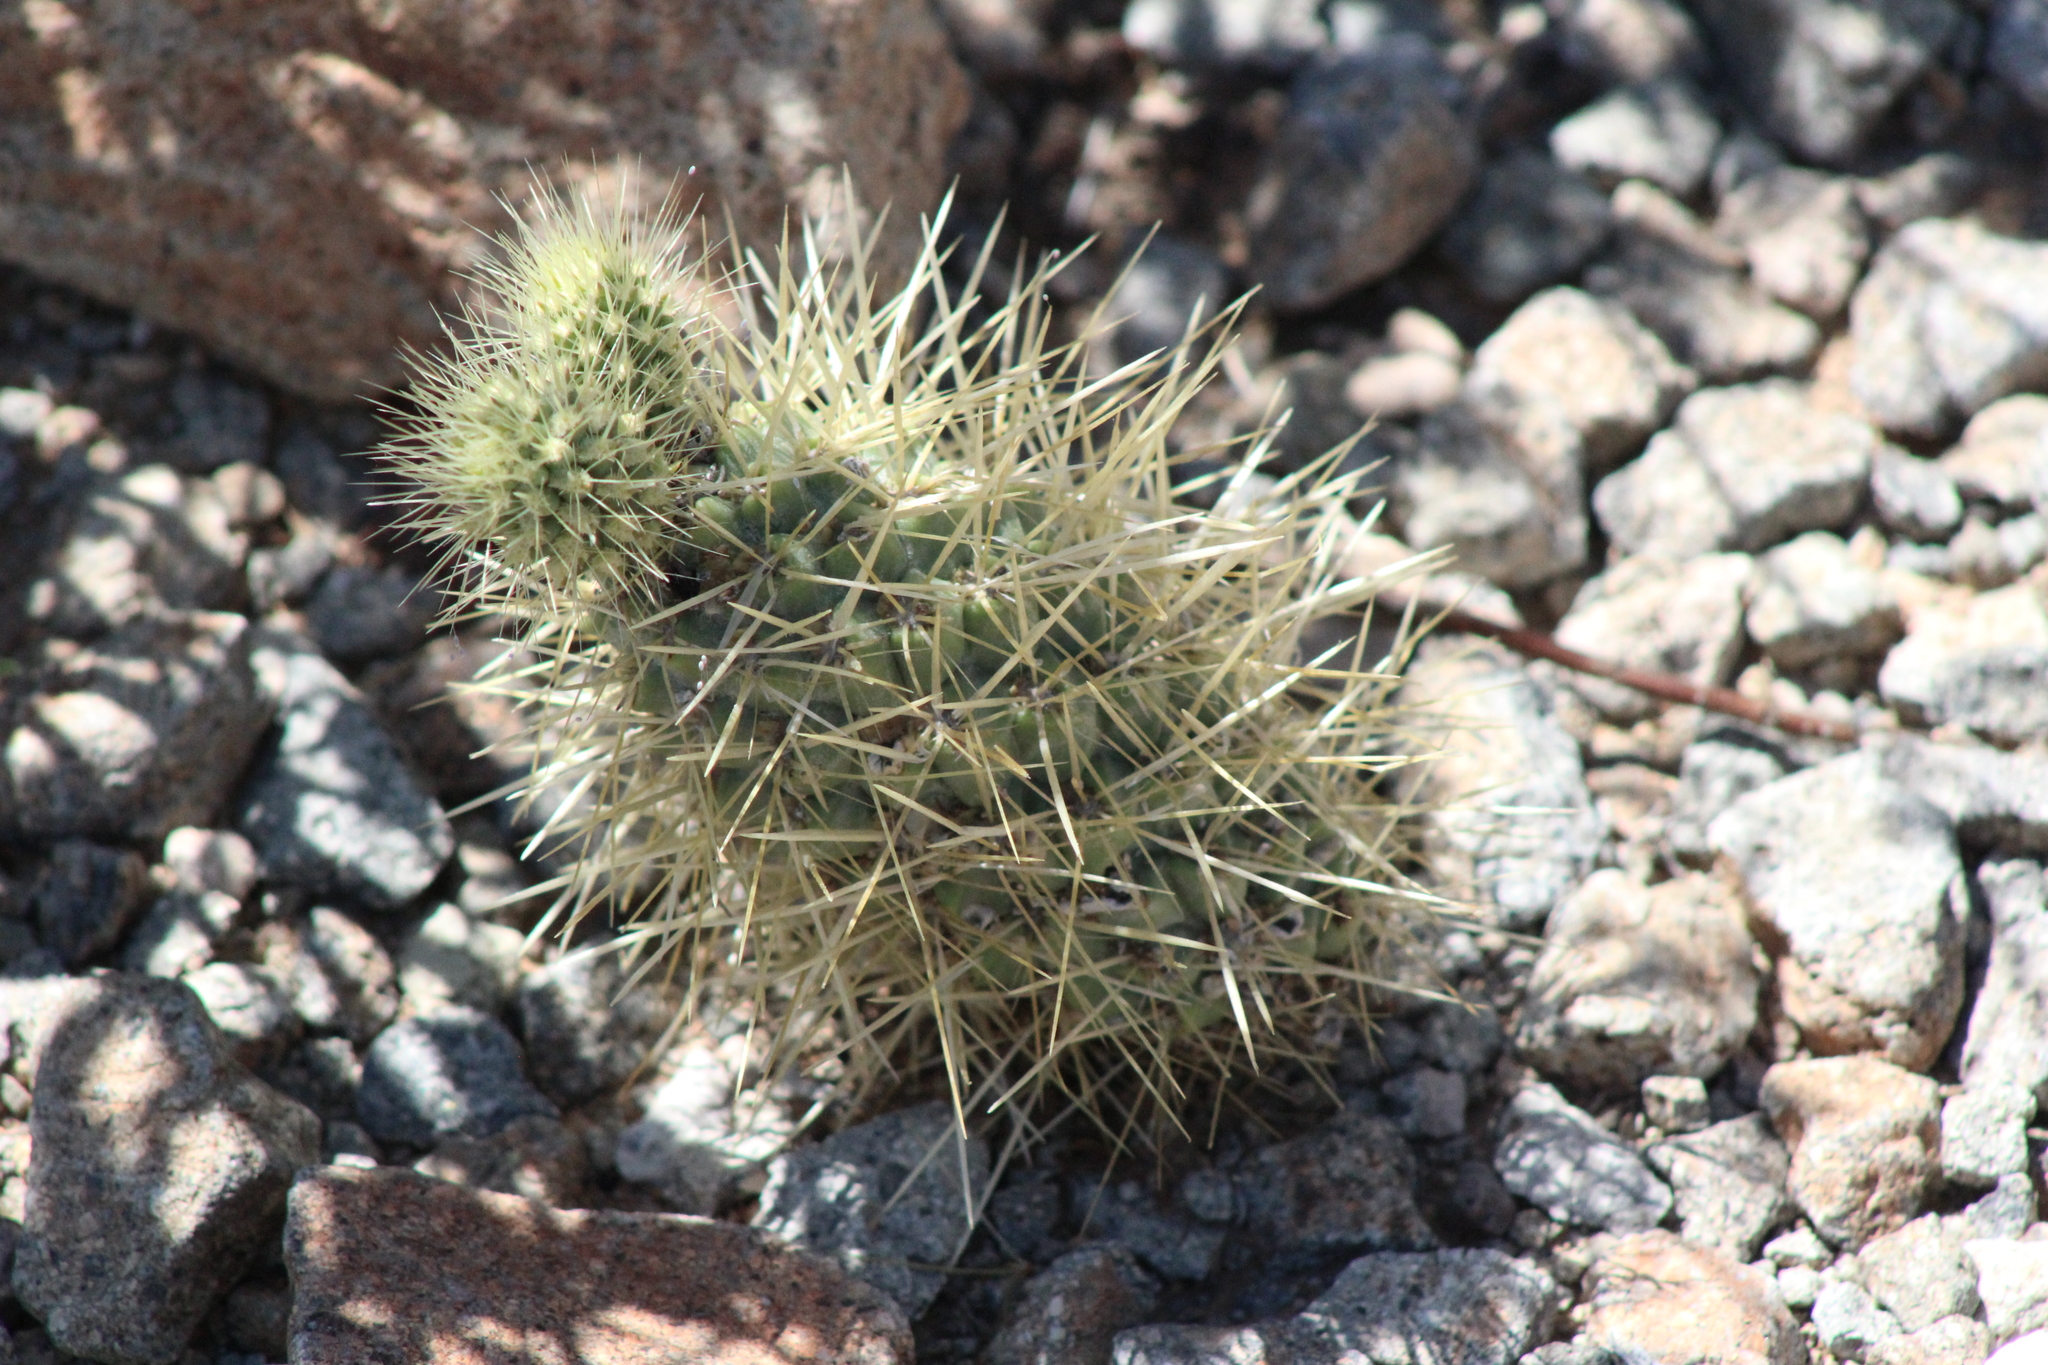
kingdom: Plantae
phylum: Tracheophyta
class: Magnoliopsida
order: Caryophyllales
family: Cactaceae
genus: Cylindropuntia
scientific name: Cylindropuntia fosbergii
